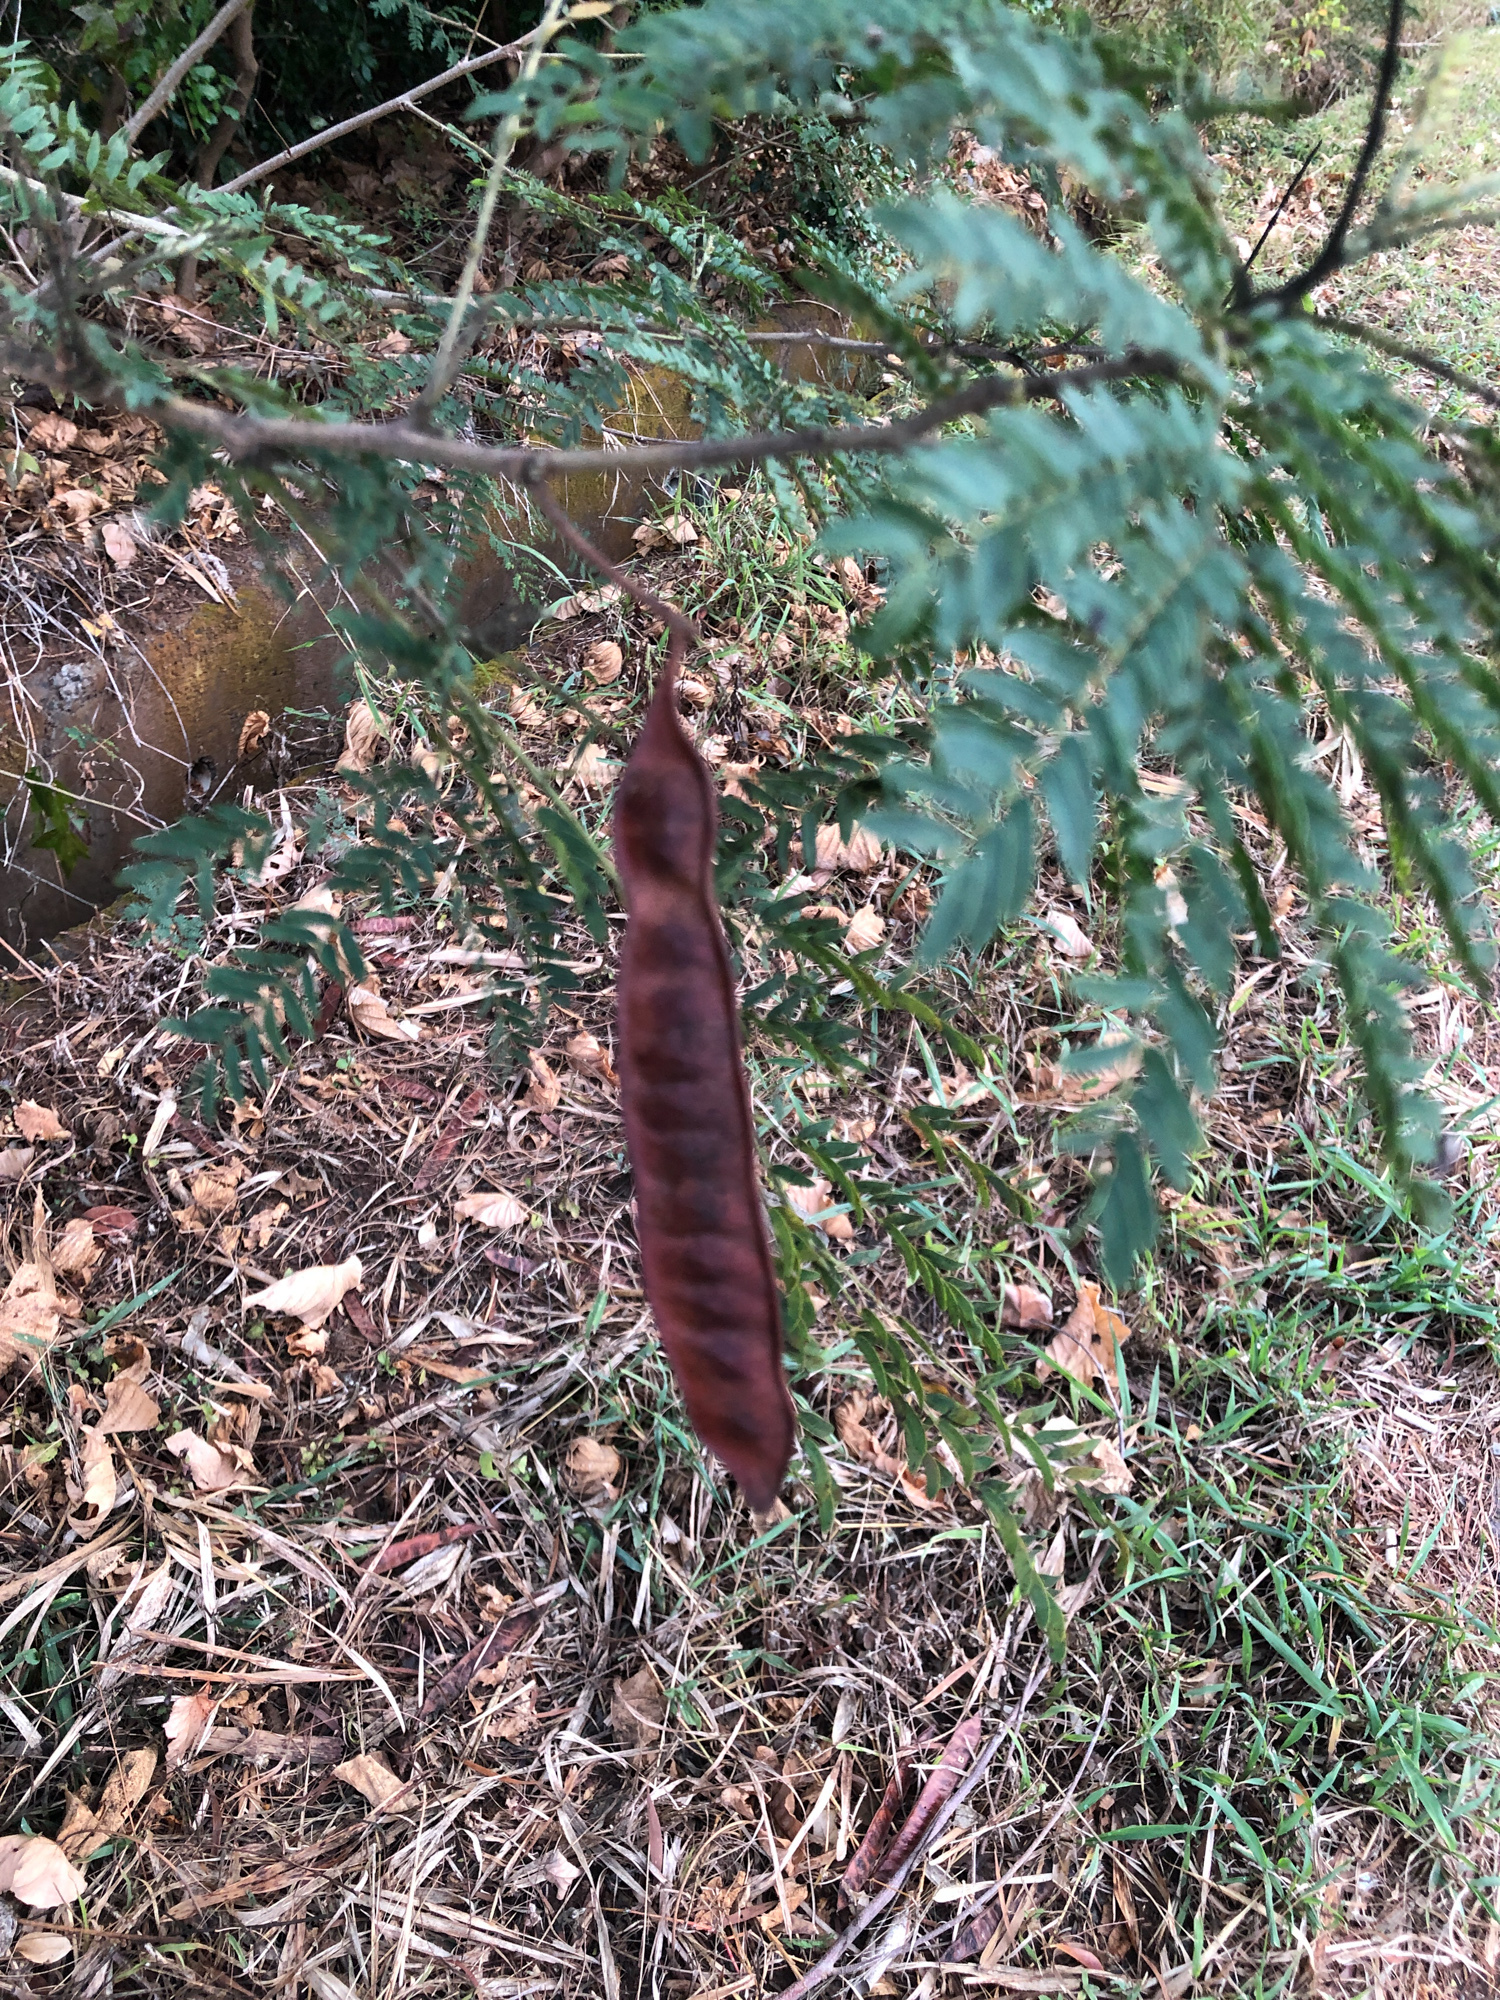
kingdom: Plantae
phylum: Tracheophyta
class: Magnoliopsida
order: Fabales
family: Fabaceae
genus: Leucaena
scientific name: Leucaena leucocephala
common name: White leadtree
